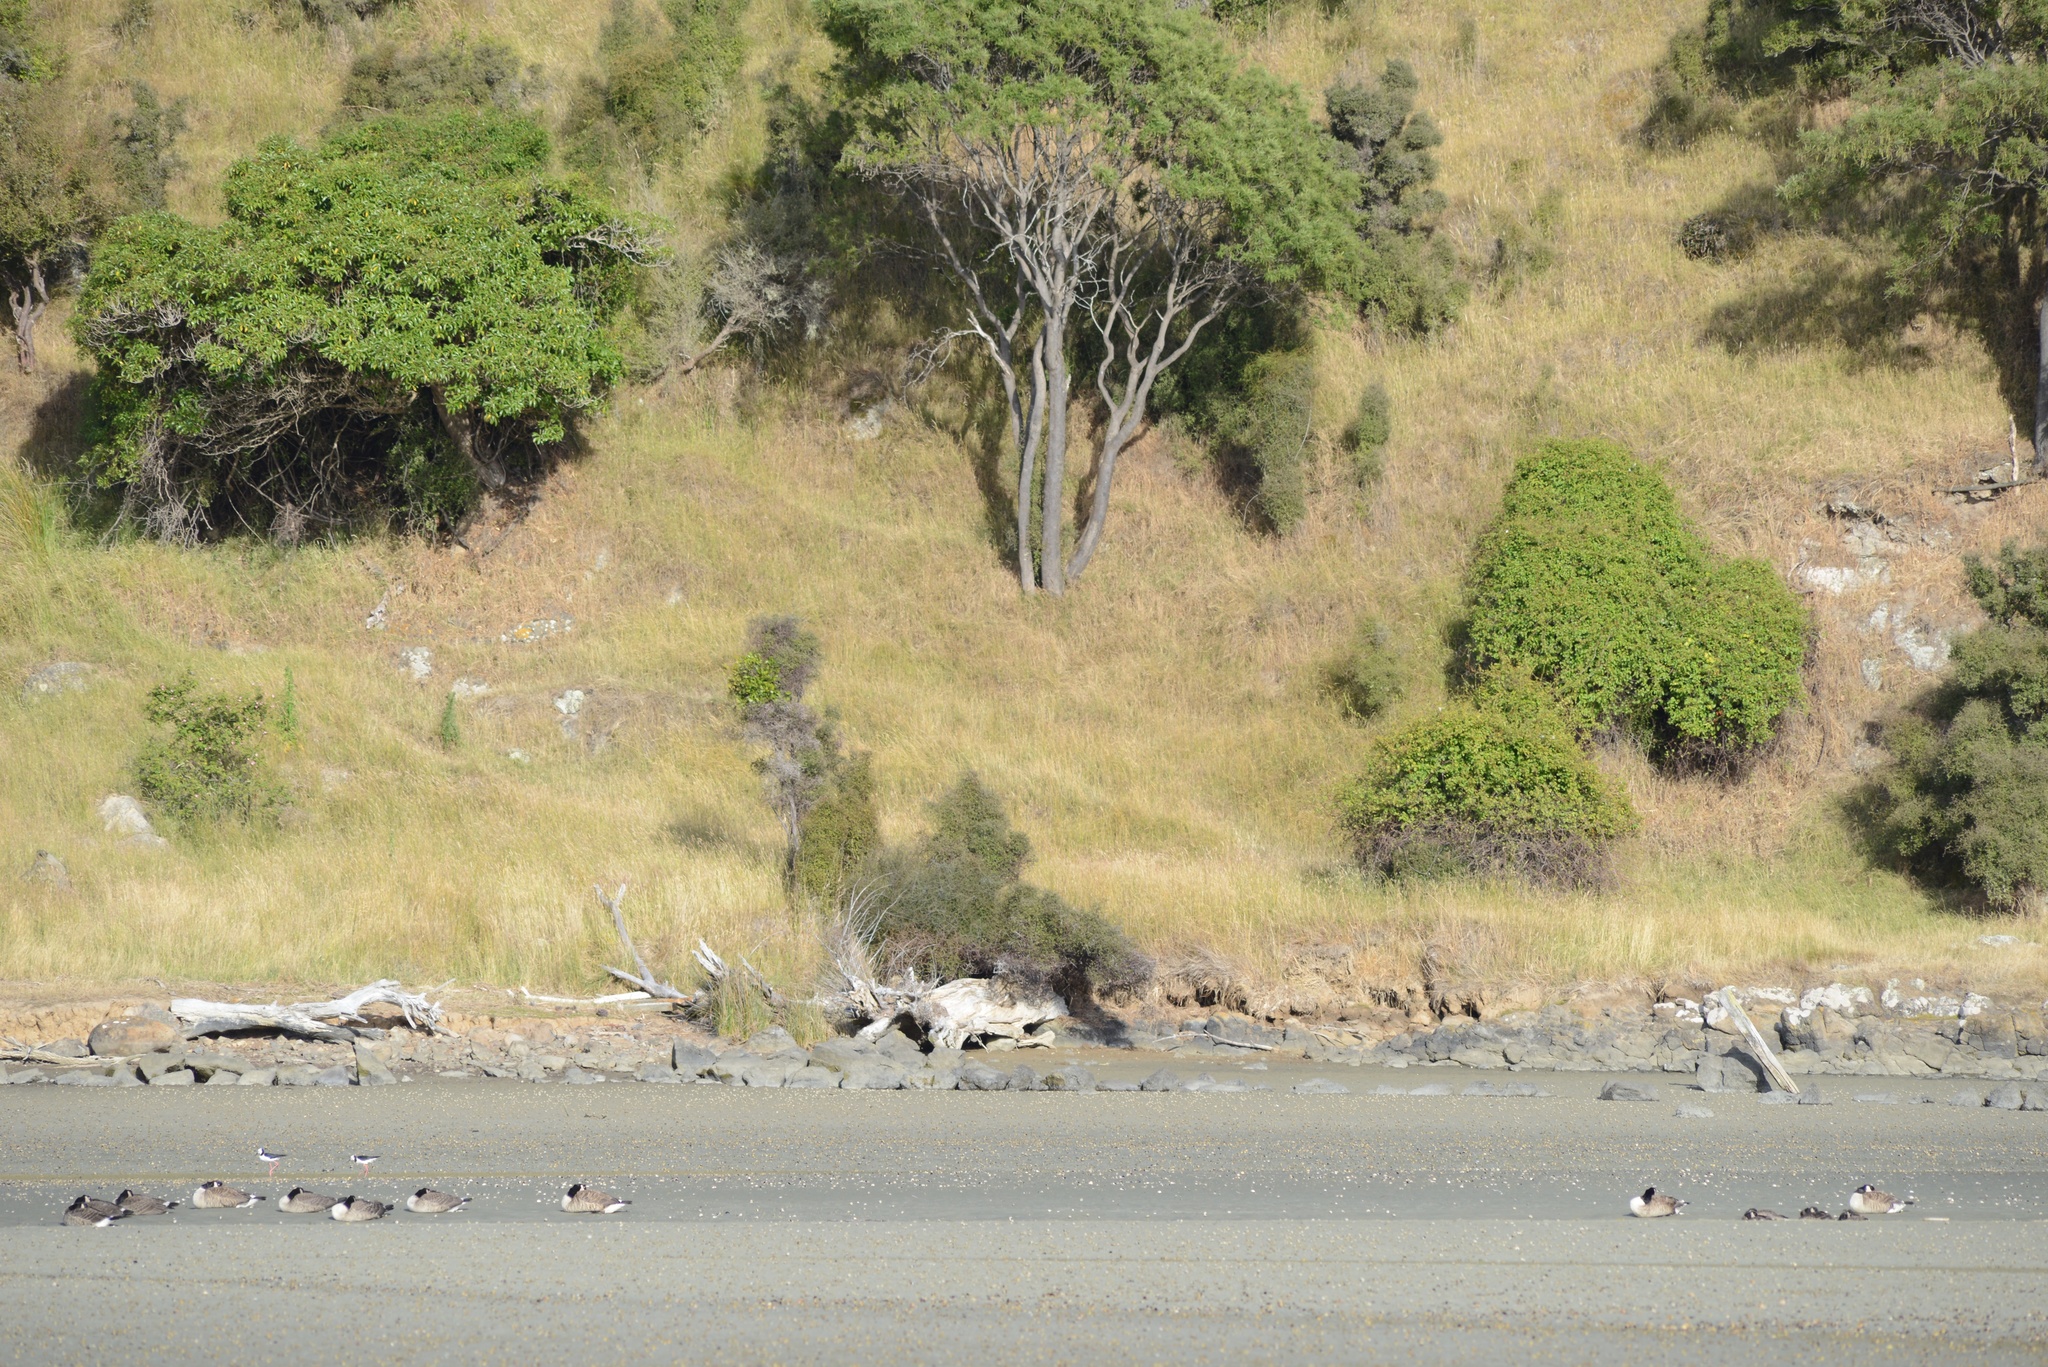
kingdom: Animalia
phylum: Chordata
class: Aves
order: Anseriformes
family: Anatidae
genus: Branta
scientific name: Branta canadensis
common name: Canada goose
